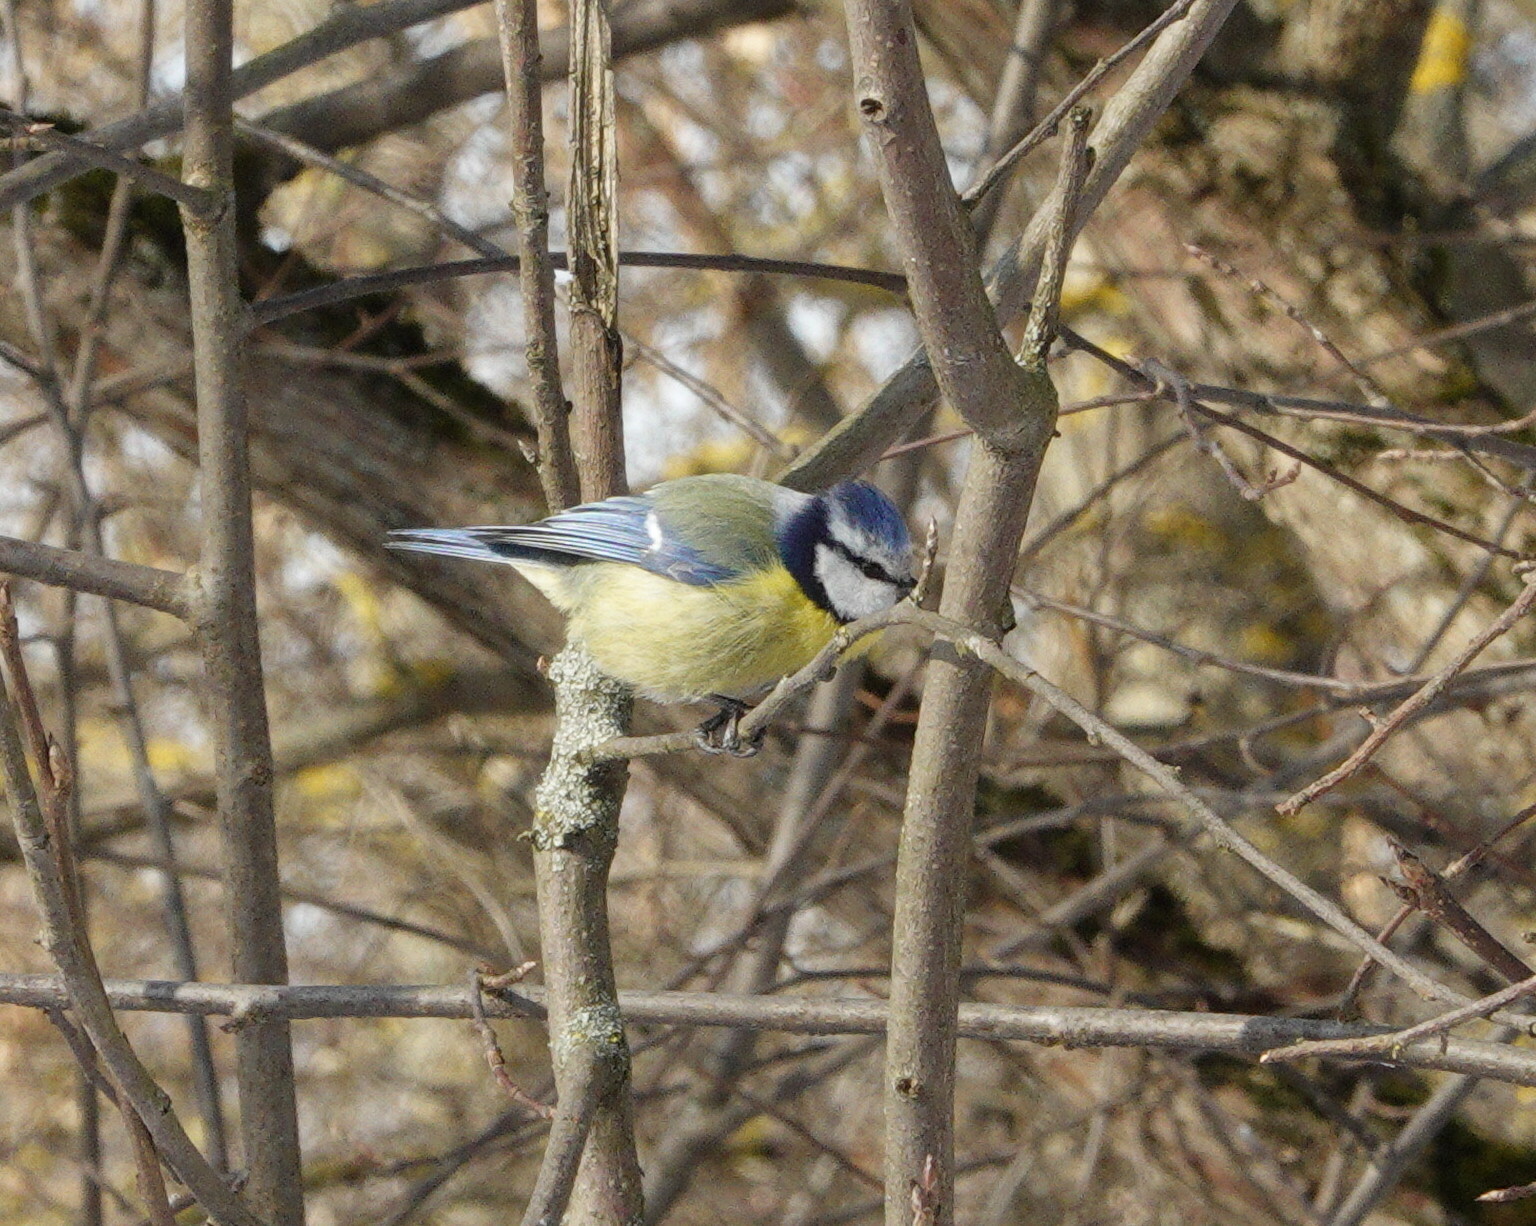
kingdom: Animalia
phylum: Chordata
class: Aves
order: Passeriformes
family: Paridae
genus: Cyanistes
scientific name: Cyanistes caeruleus
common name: Eurasian blue tit
